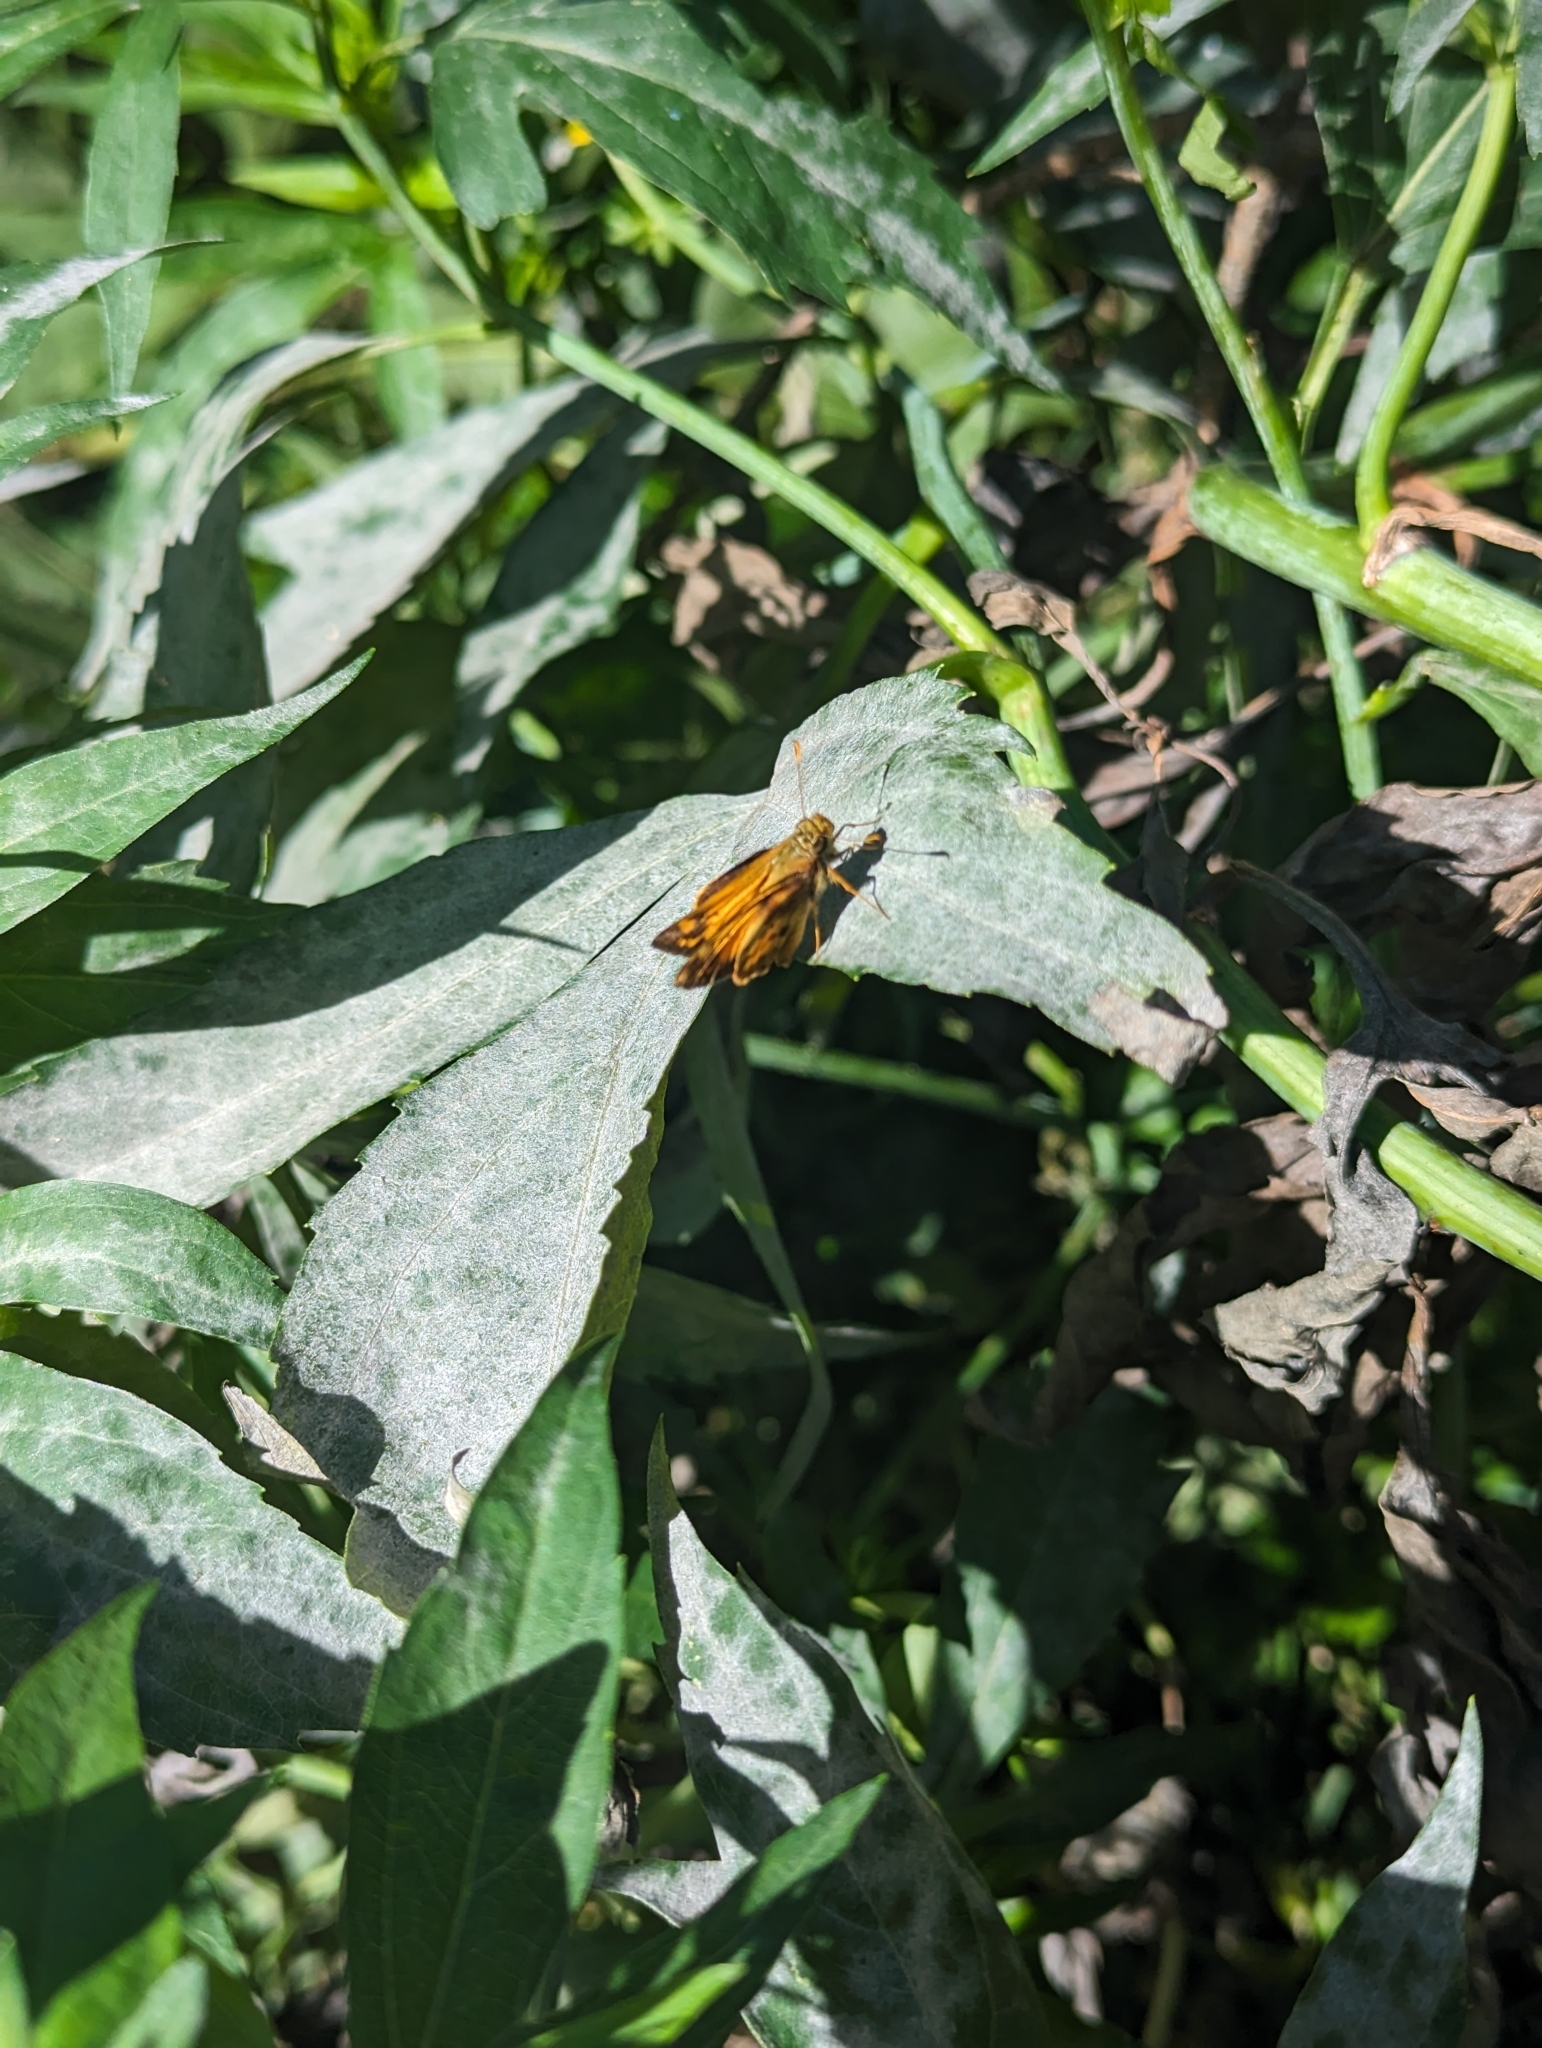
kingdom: Animalia
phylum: Arthropoda
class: Insecta
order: Lepidoptera
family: Hesperiidae
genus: Lon
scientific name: Lon zabulon
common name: Zabulon skipper
